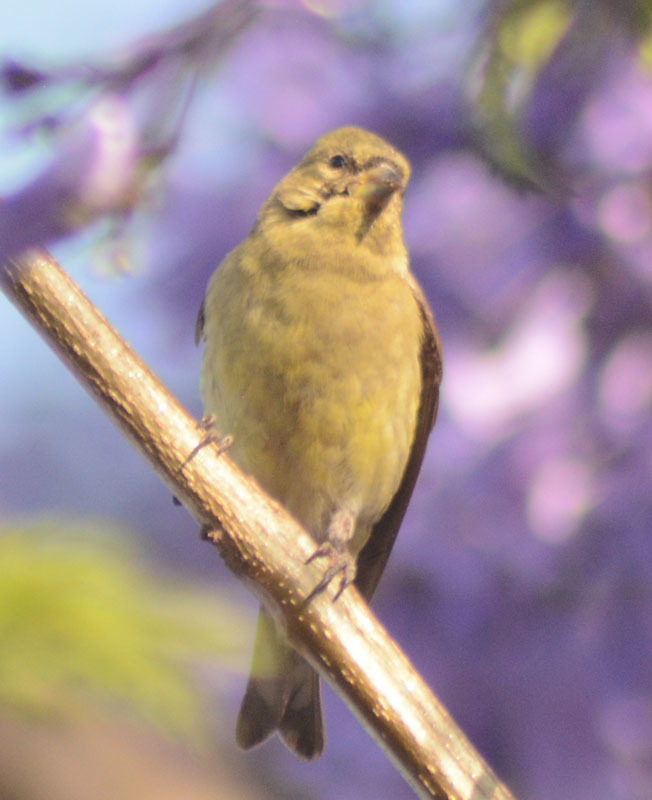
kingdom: Animalia
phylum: Chordata
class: Aves
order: Passeriformes
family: Fringillidae
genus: Spinus
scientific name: Spinus psaltria
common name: Lesser goldfinch
